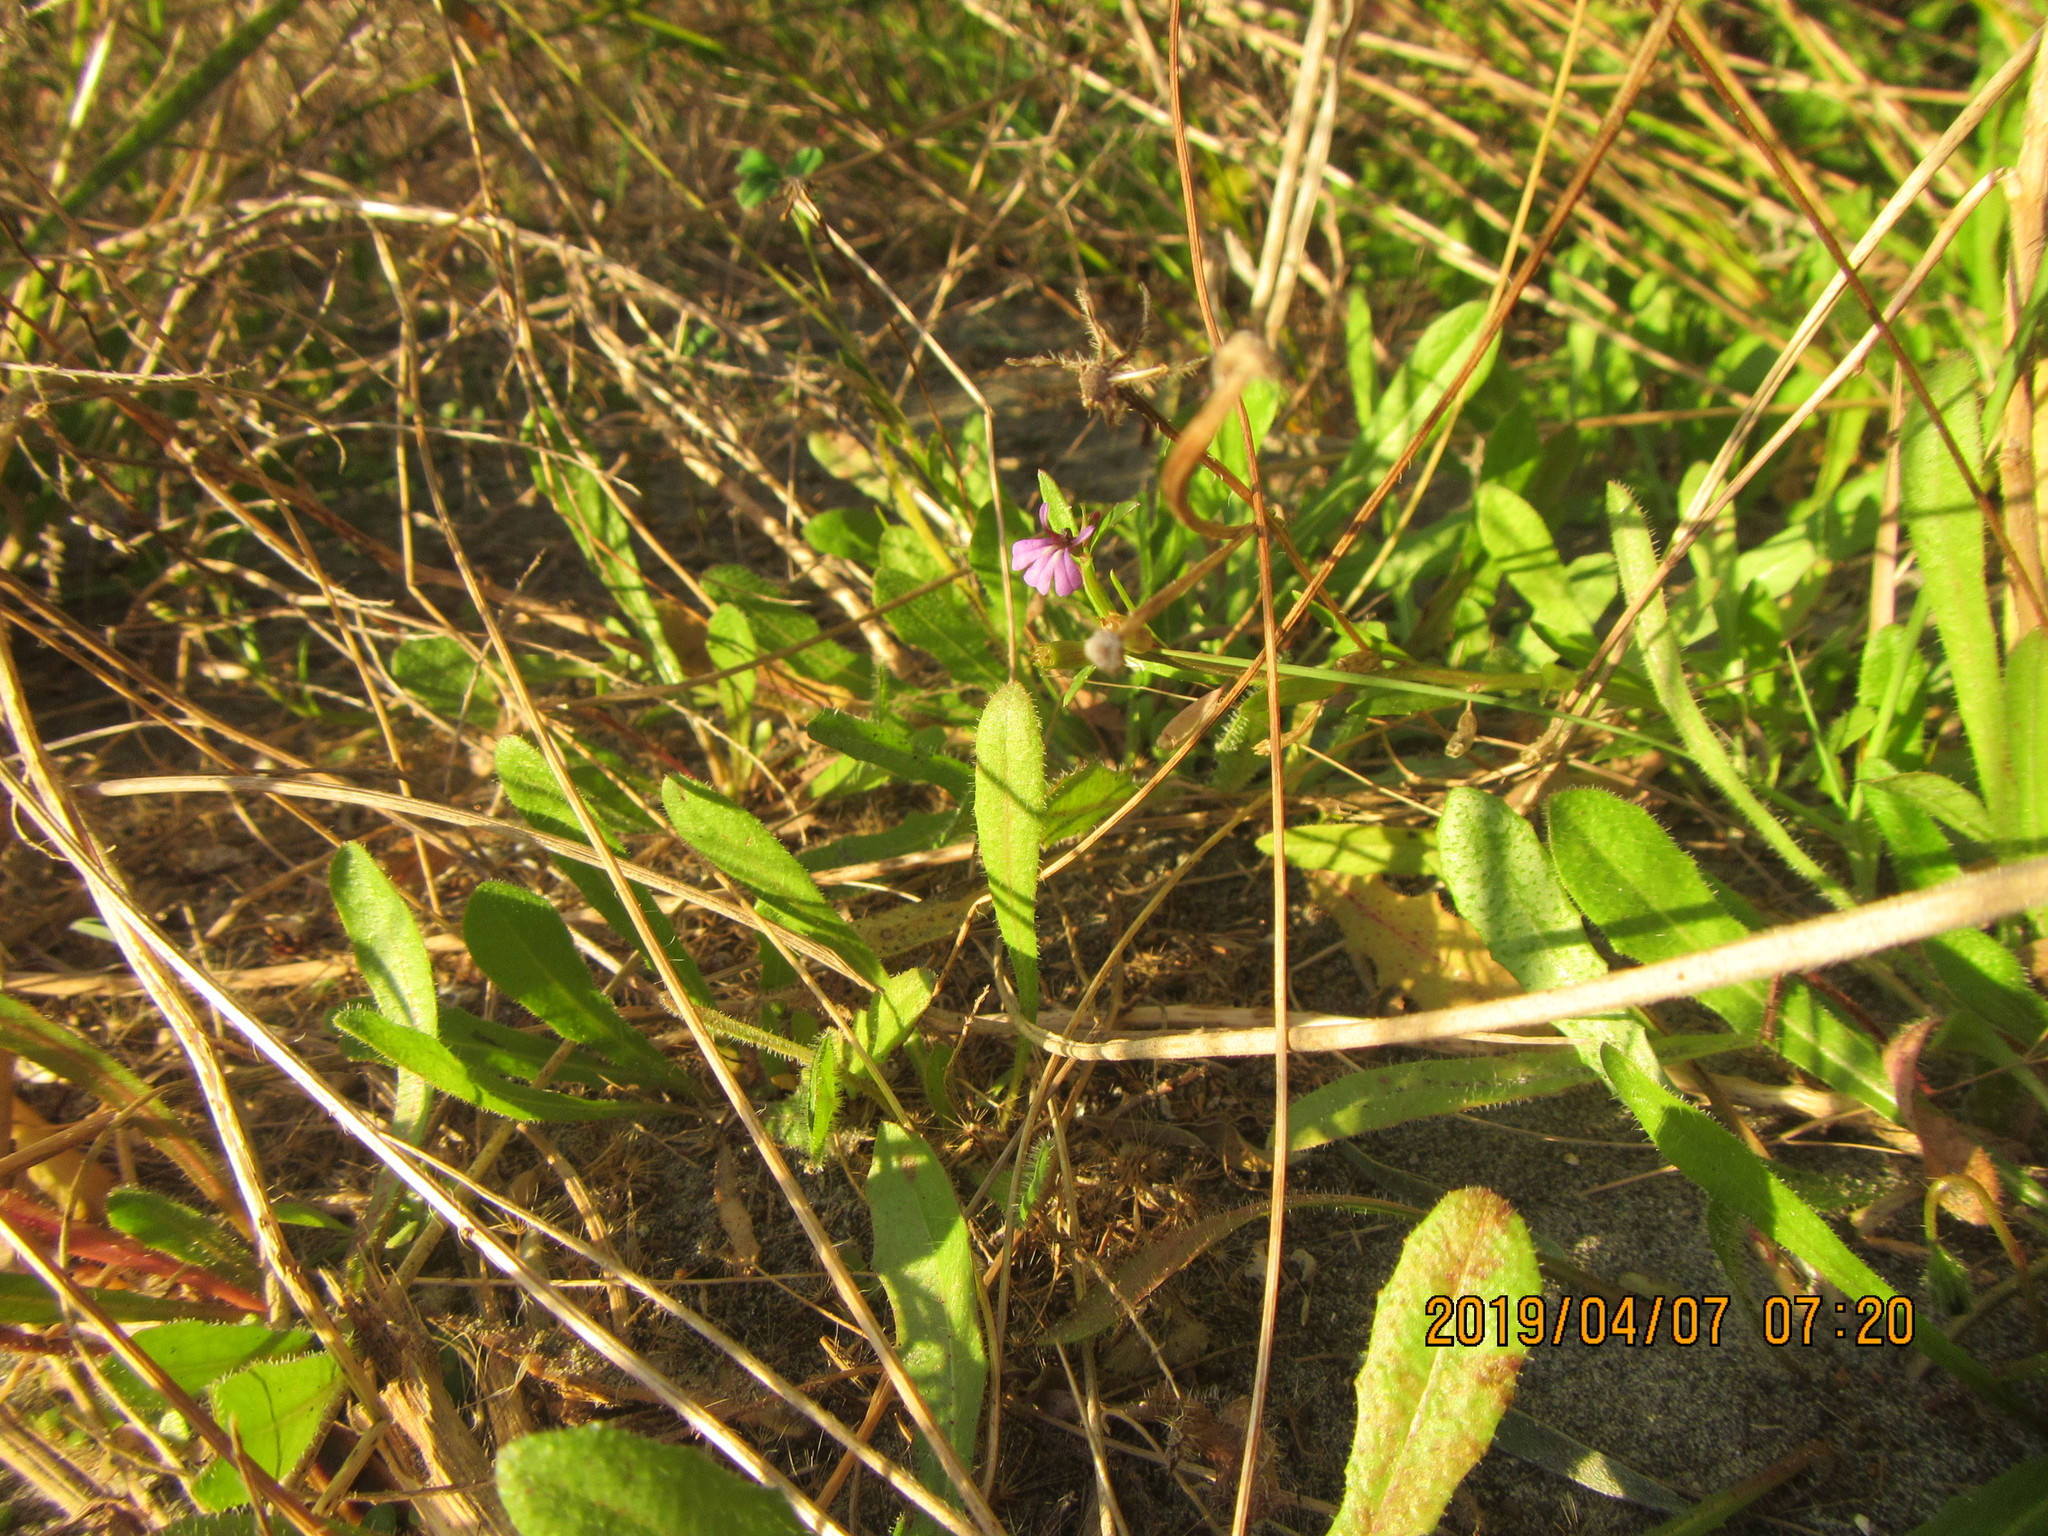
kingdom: Plantae
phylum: Tracheophyta
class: Magnoliopsida
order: Asterales
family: Campanulaceae
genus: Lobelia
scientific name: Lobelia anceps
